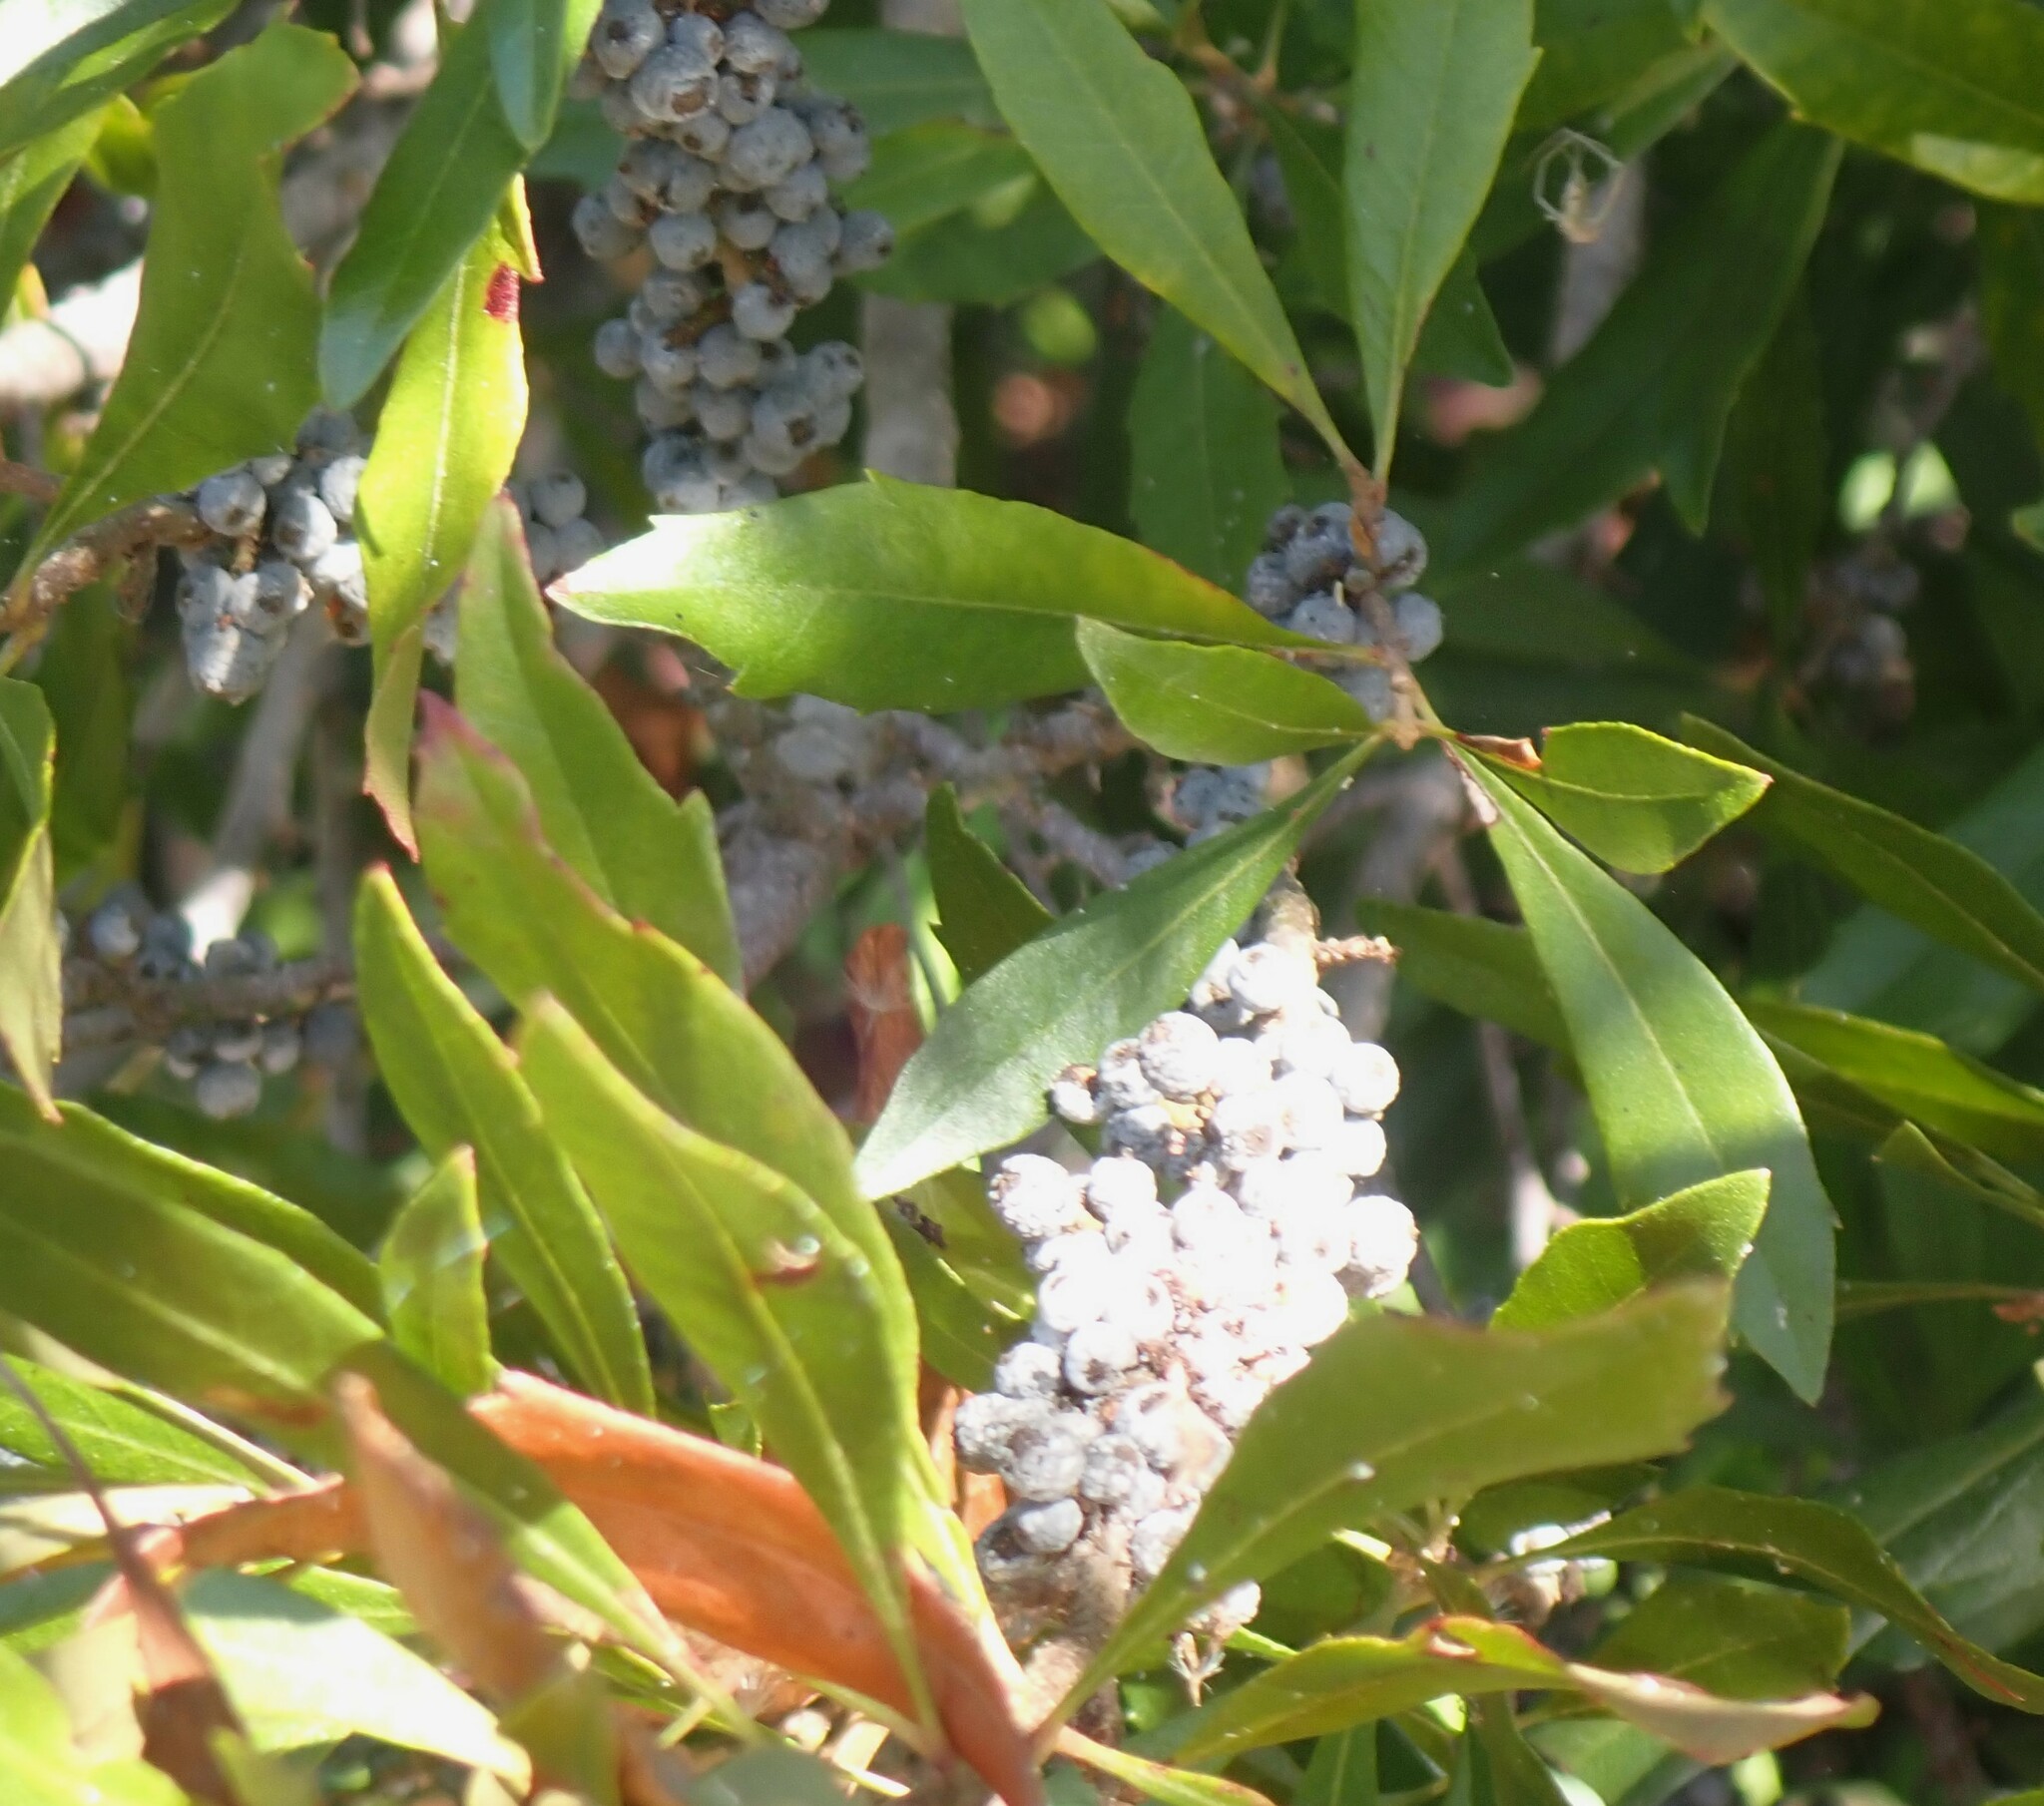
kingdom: Plantae
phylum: Tracheophyta
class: Magnoliopsida
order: Fagales
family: Myricaceae
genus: Morella
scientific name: Morella cerifera
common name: Wax myrtle
